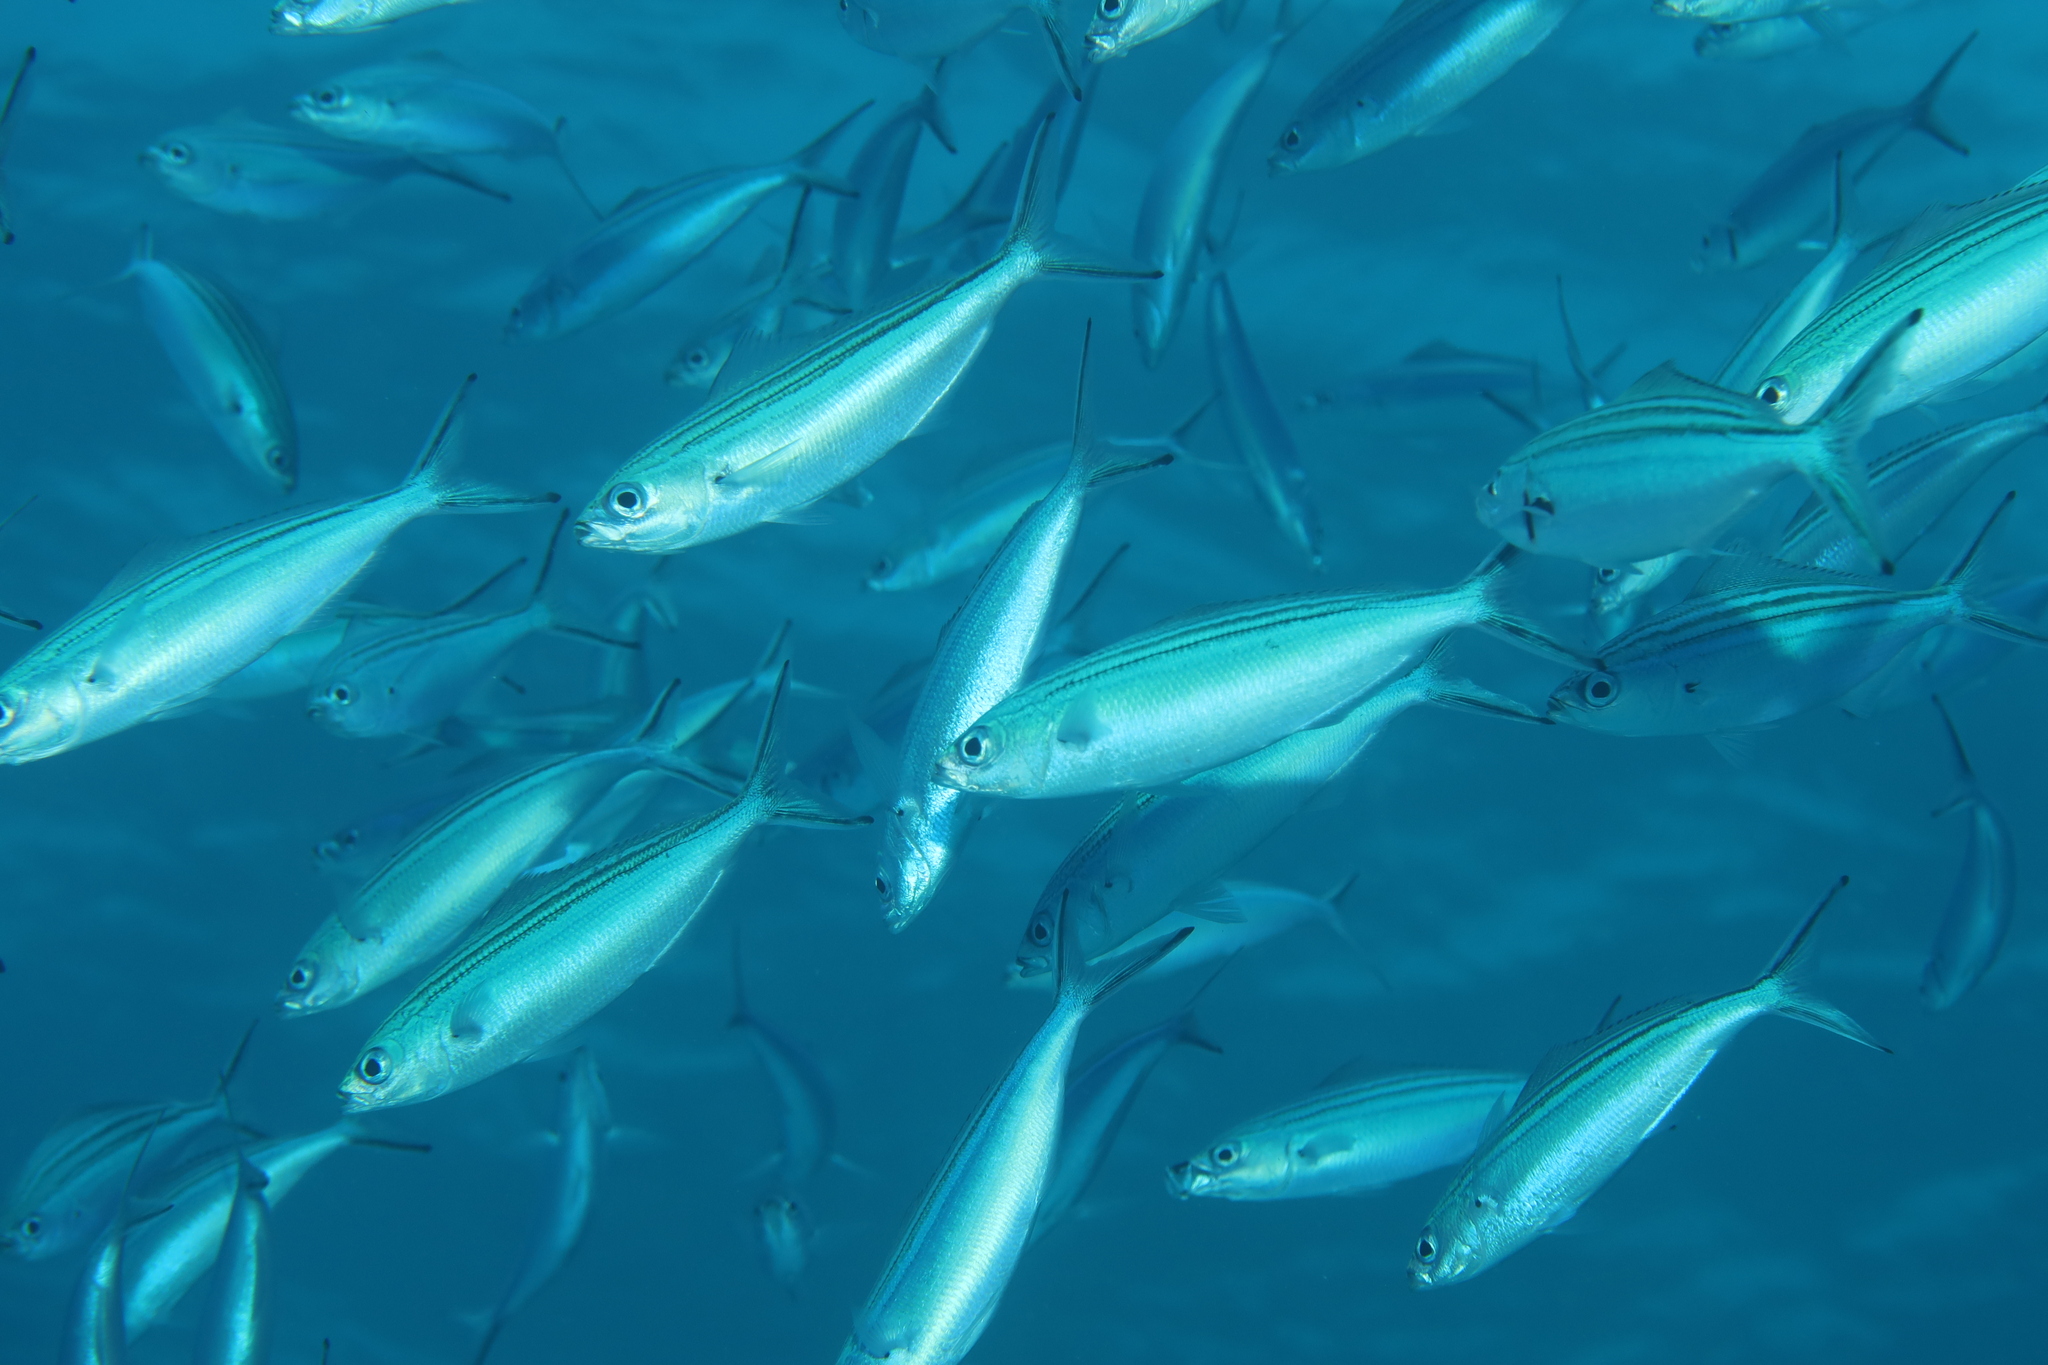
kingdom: Animalia
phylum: Chordata
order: Perciformes
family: Caesionidae
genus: Caesio
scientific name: Caesio striata
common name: Striated fusilier
